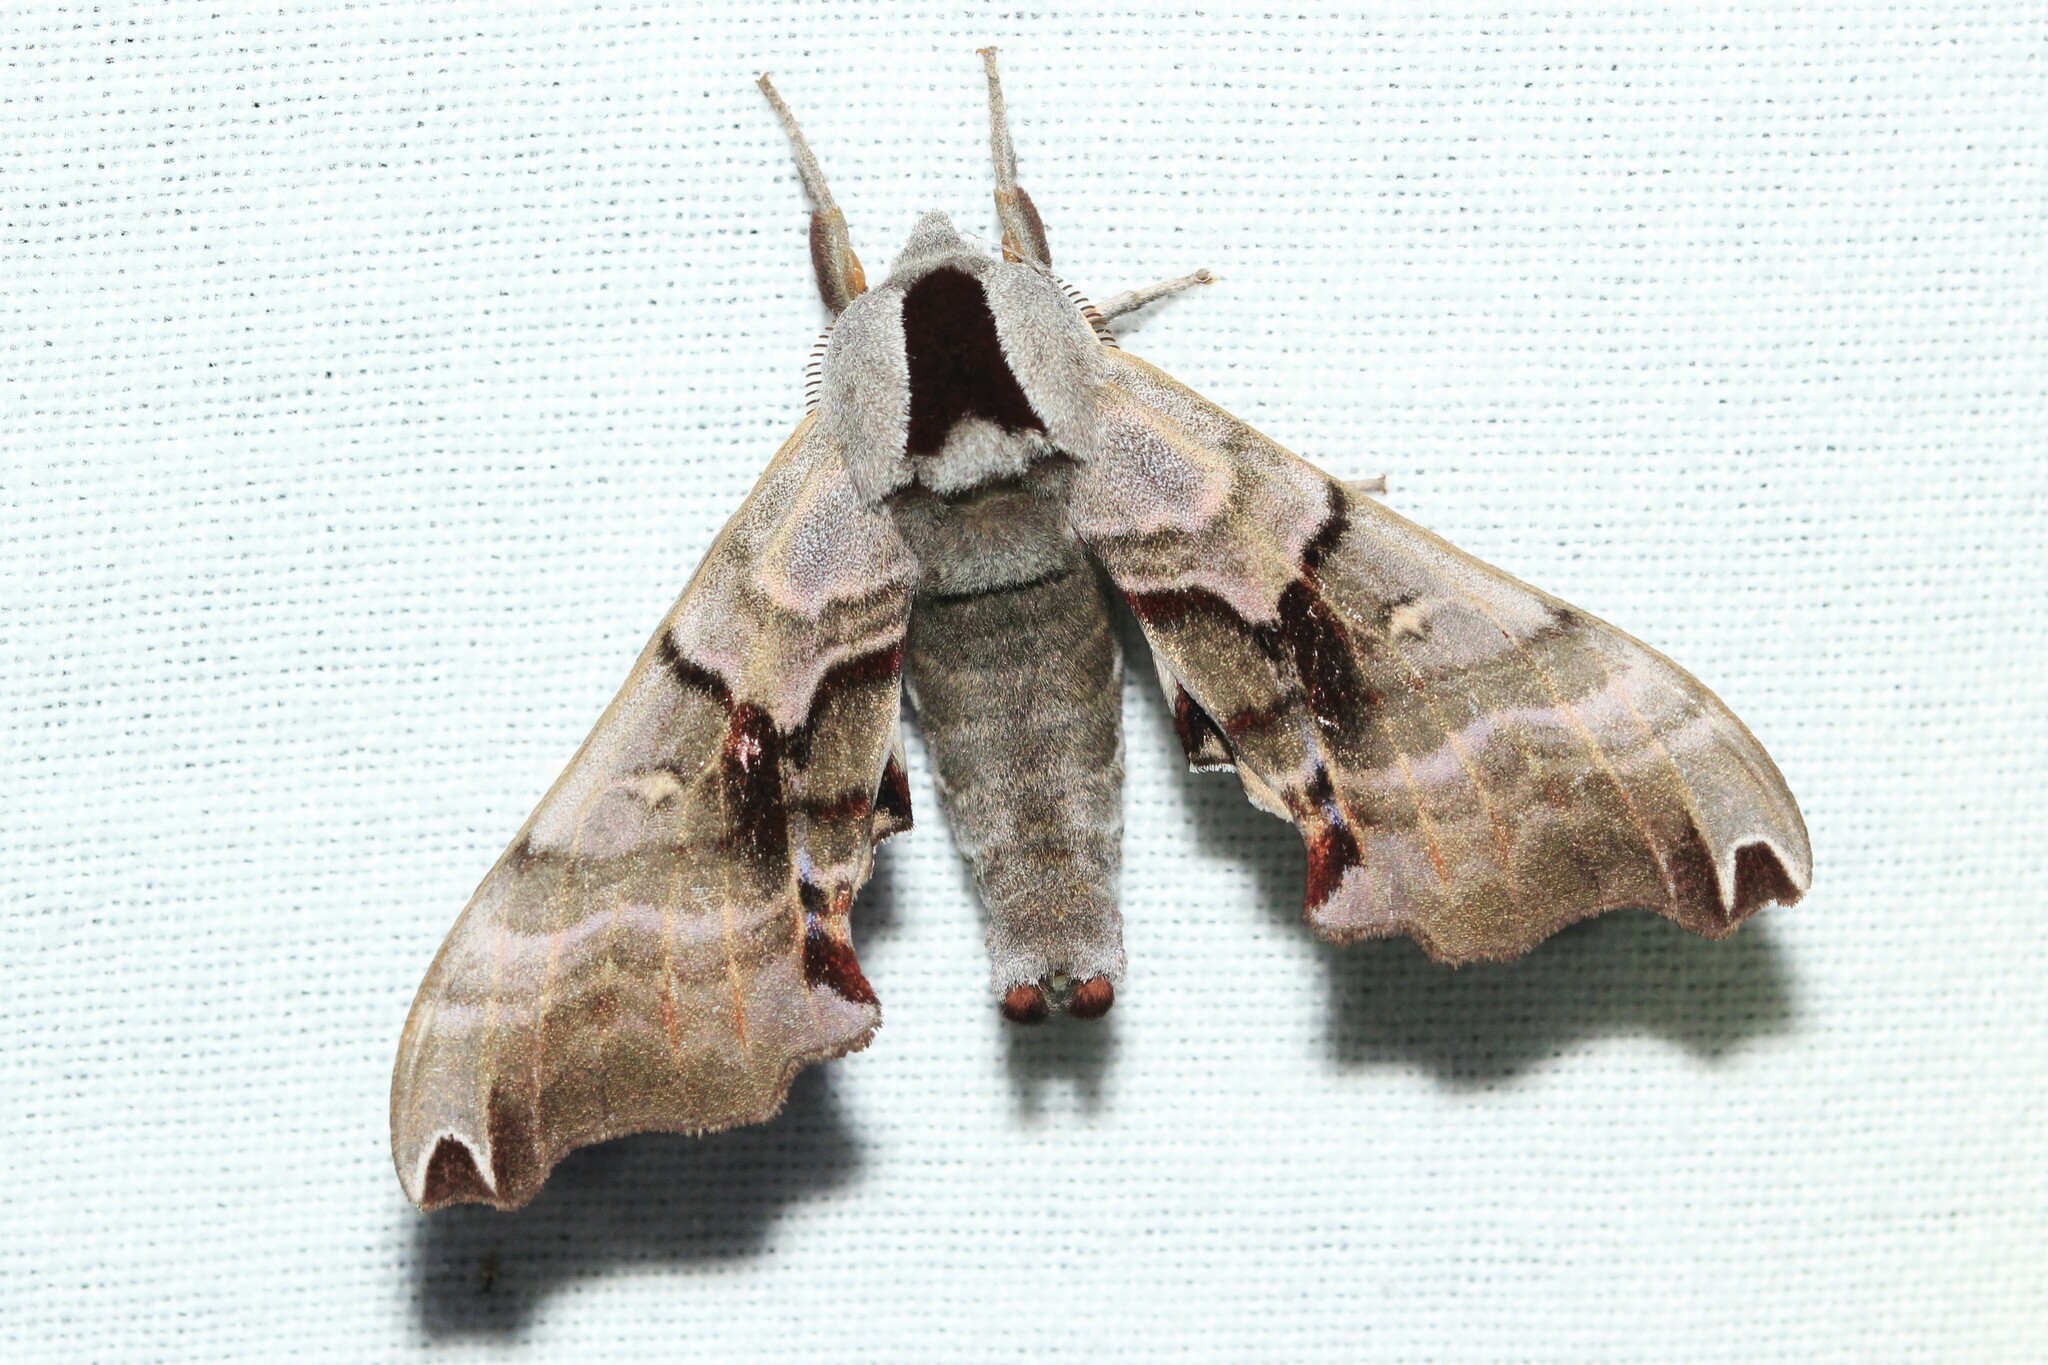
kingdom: Animalia
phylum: Arthropoda
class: Insecta
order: Lepidoptera
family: Sphingidae
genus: Smerinthus
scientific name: Smerinthus jamaicensis
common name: Twin spotted sphinx
